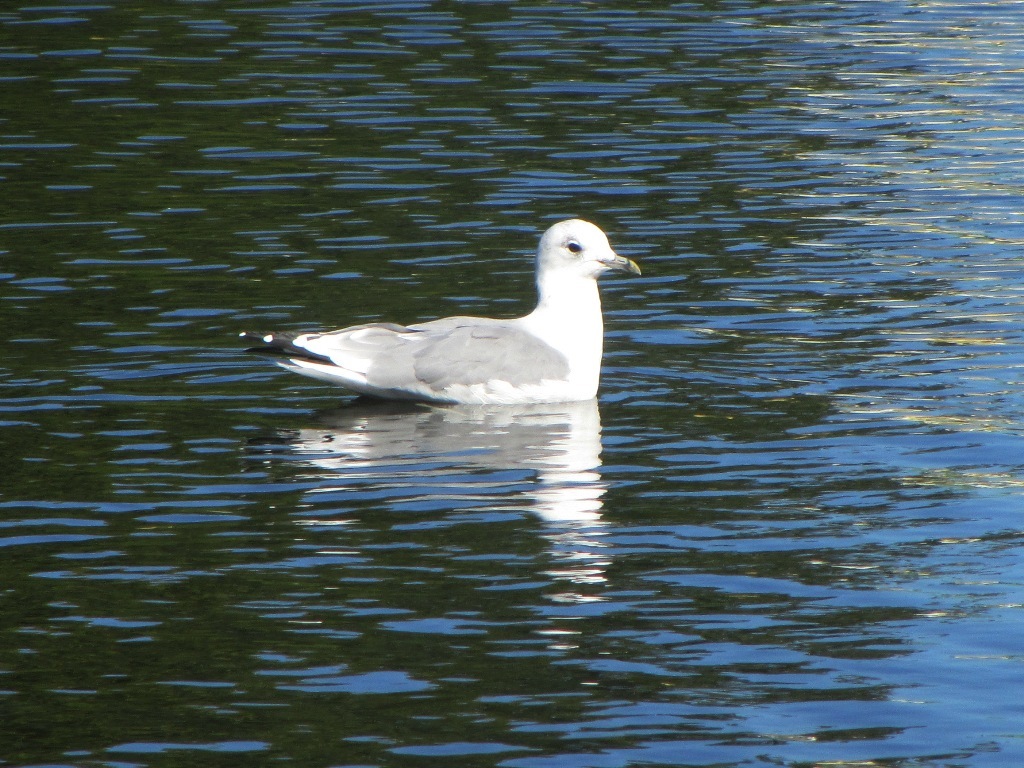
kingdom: Animalia
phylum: Chordata
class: Aves
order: Charadriiformes
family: Laridae
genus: Larus
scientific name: Larus canus
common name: Mew gull
